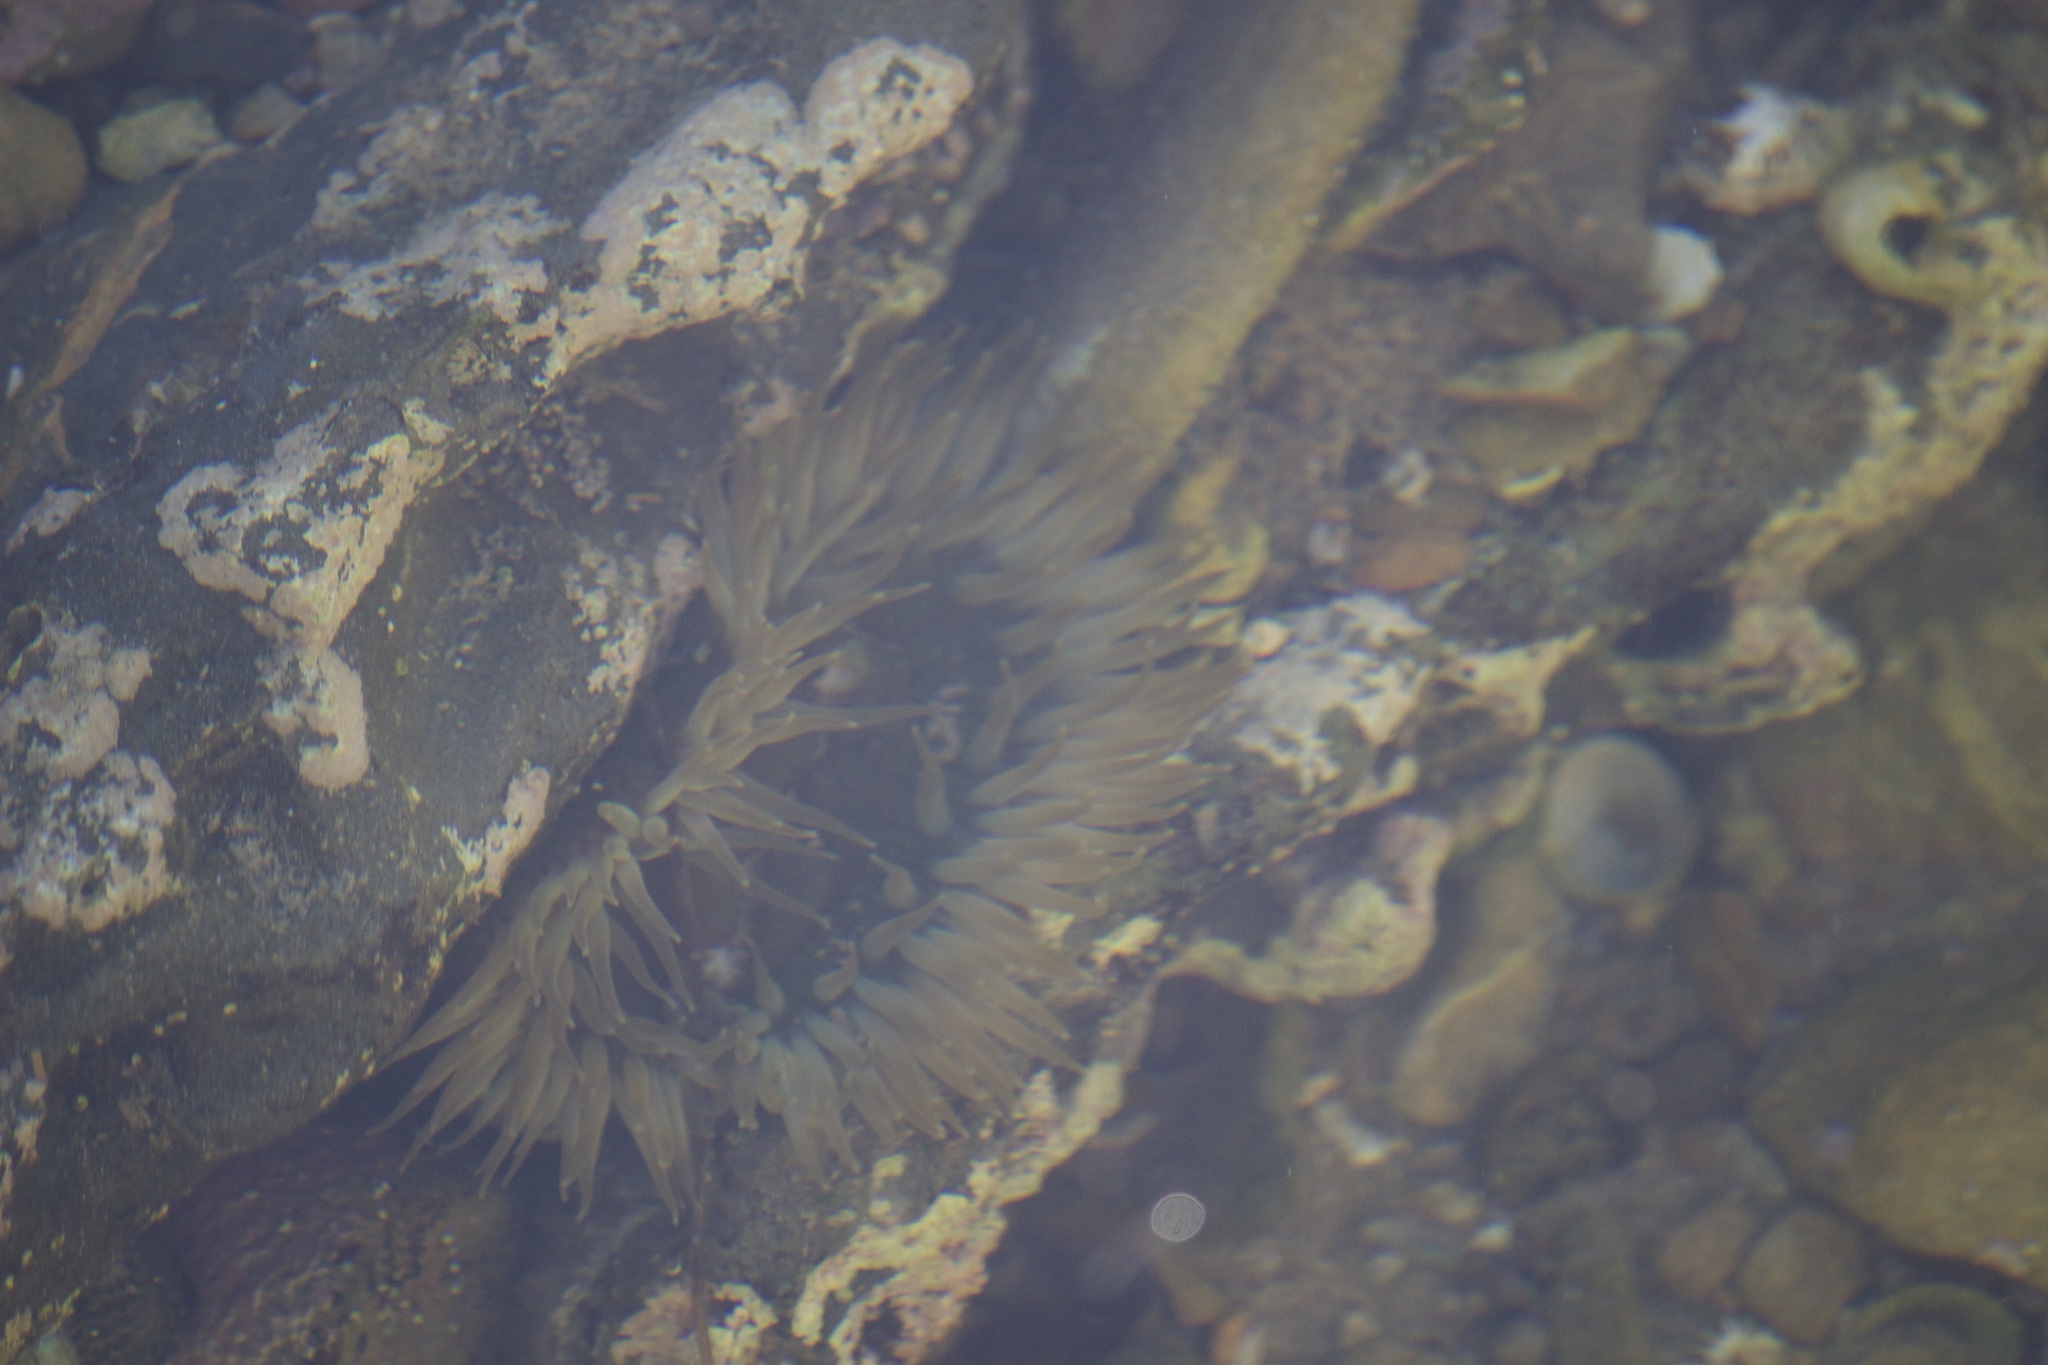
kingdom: Animalia
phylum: Cnidaria
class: Anthozoa
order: Actiniaria
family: Actiniidae
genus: Anthopleura
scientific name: Anthopleura sola
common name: Sun anemone
